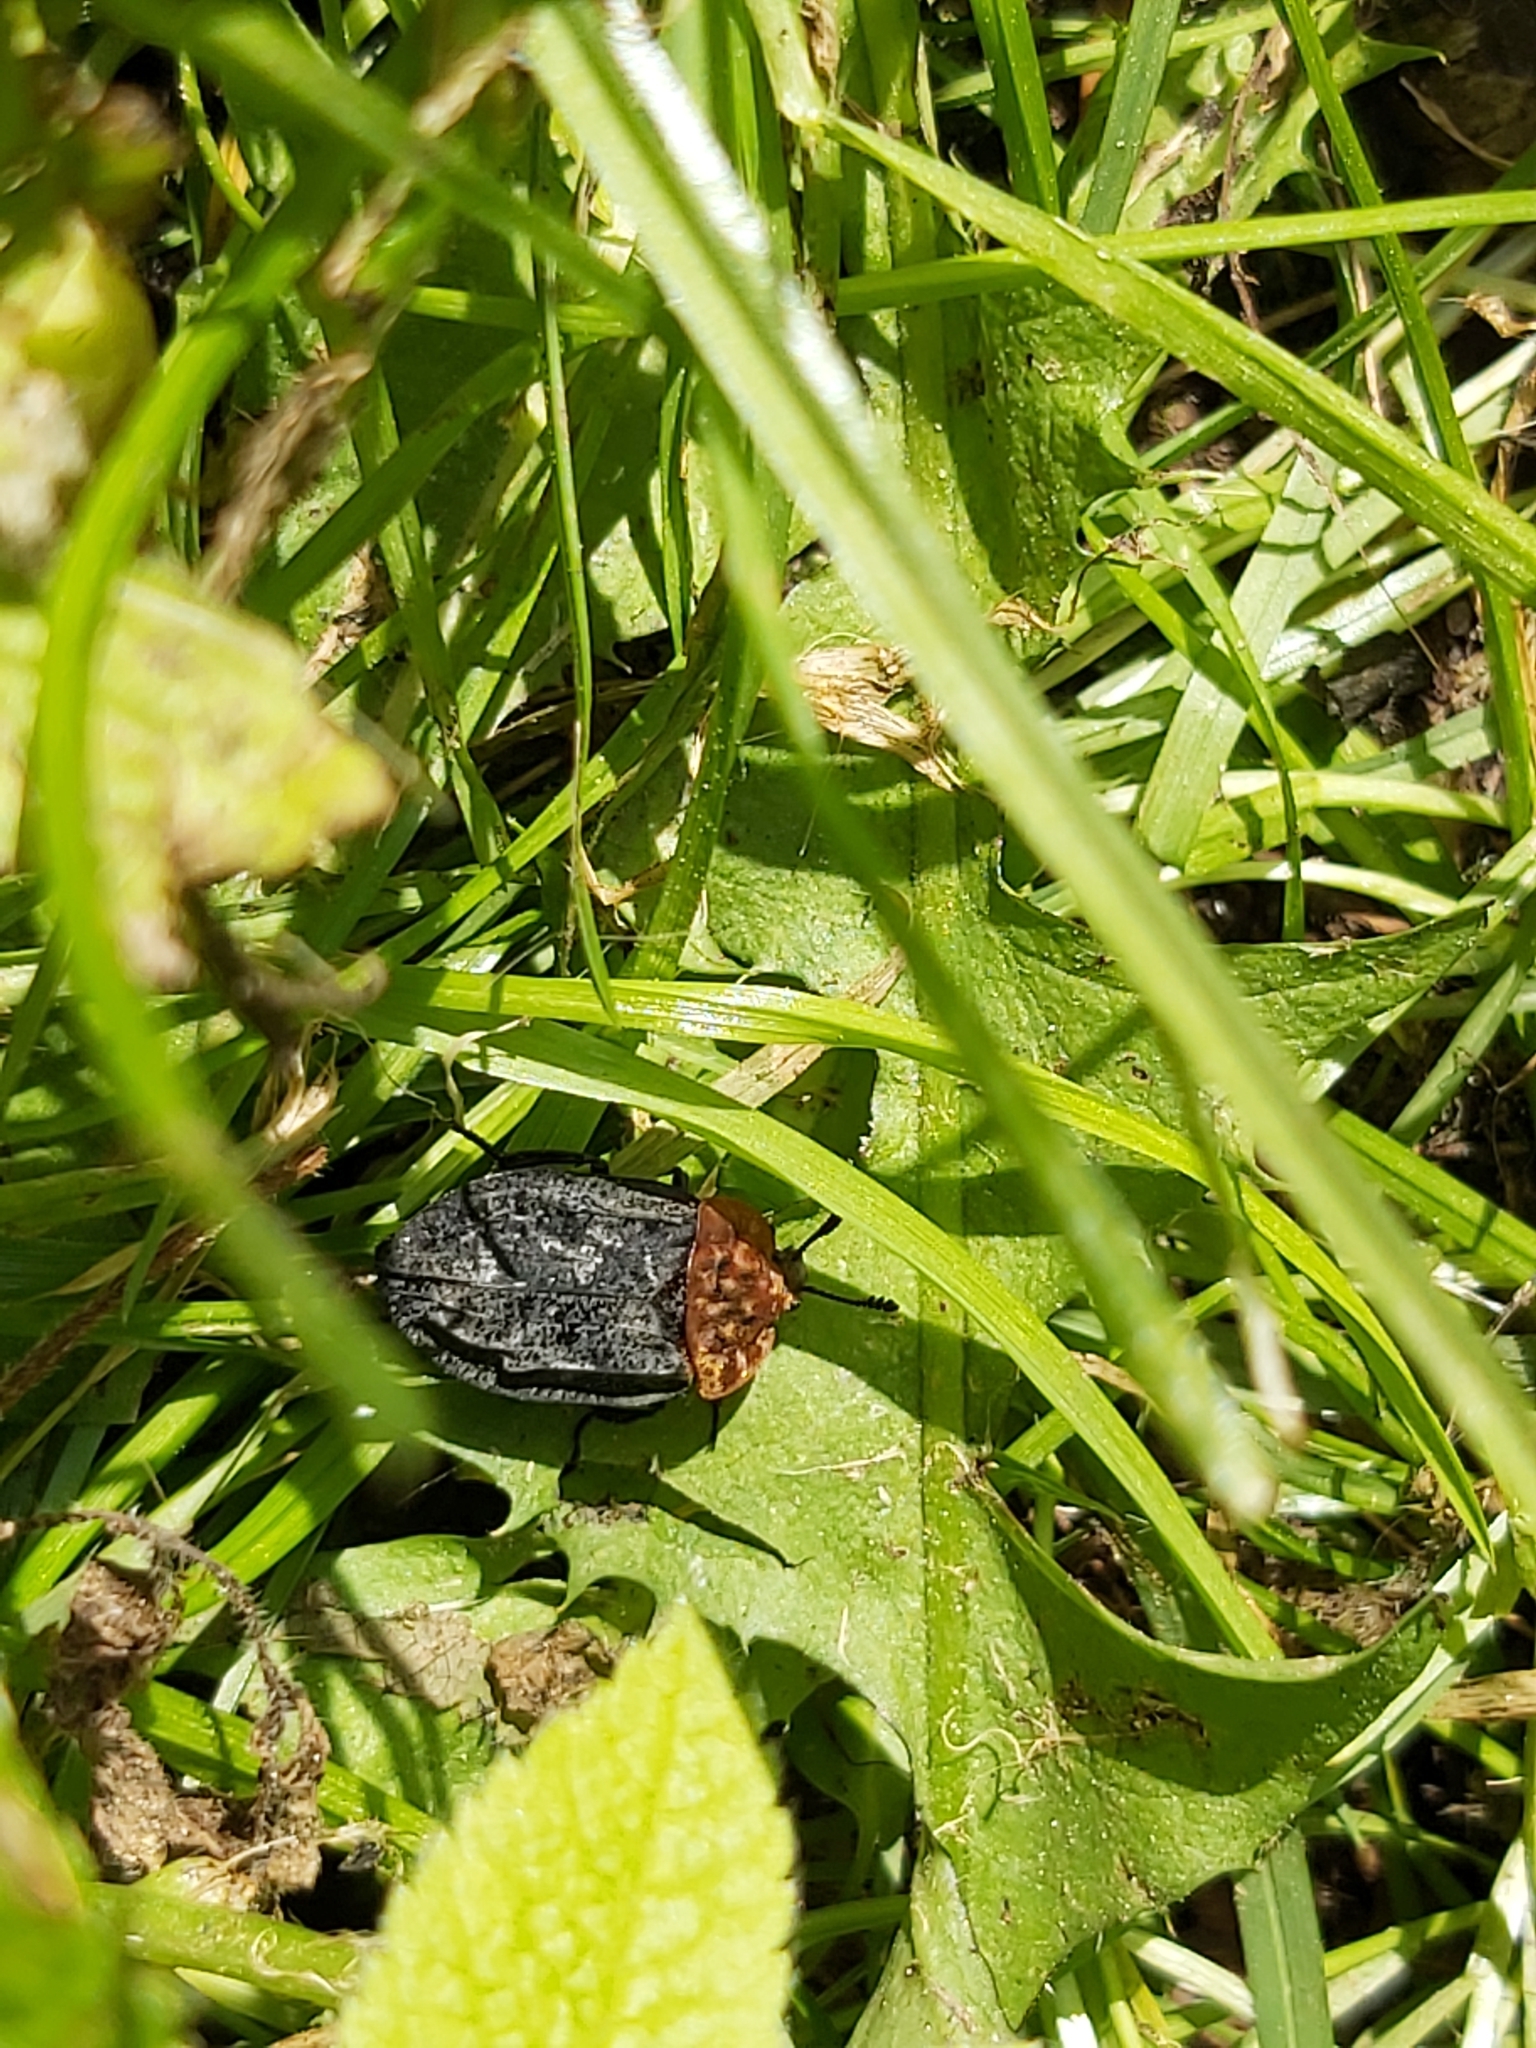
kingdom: Animalia
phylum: Arthropoda
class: Insecta
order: Coleoptera
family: Staphylinidae
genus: Oiceoptoma
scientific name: Oiceoptoma thoracicum
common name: Red-breasted carrion beetle
